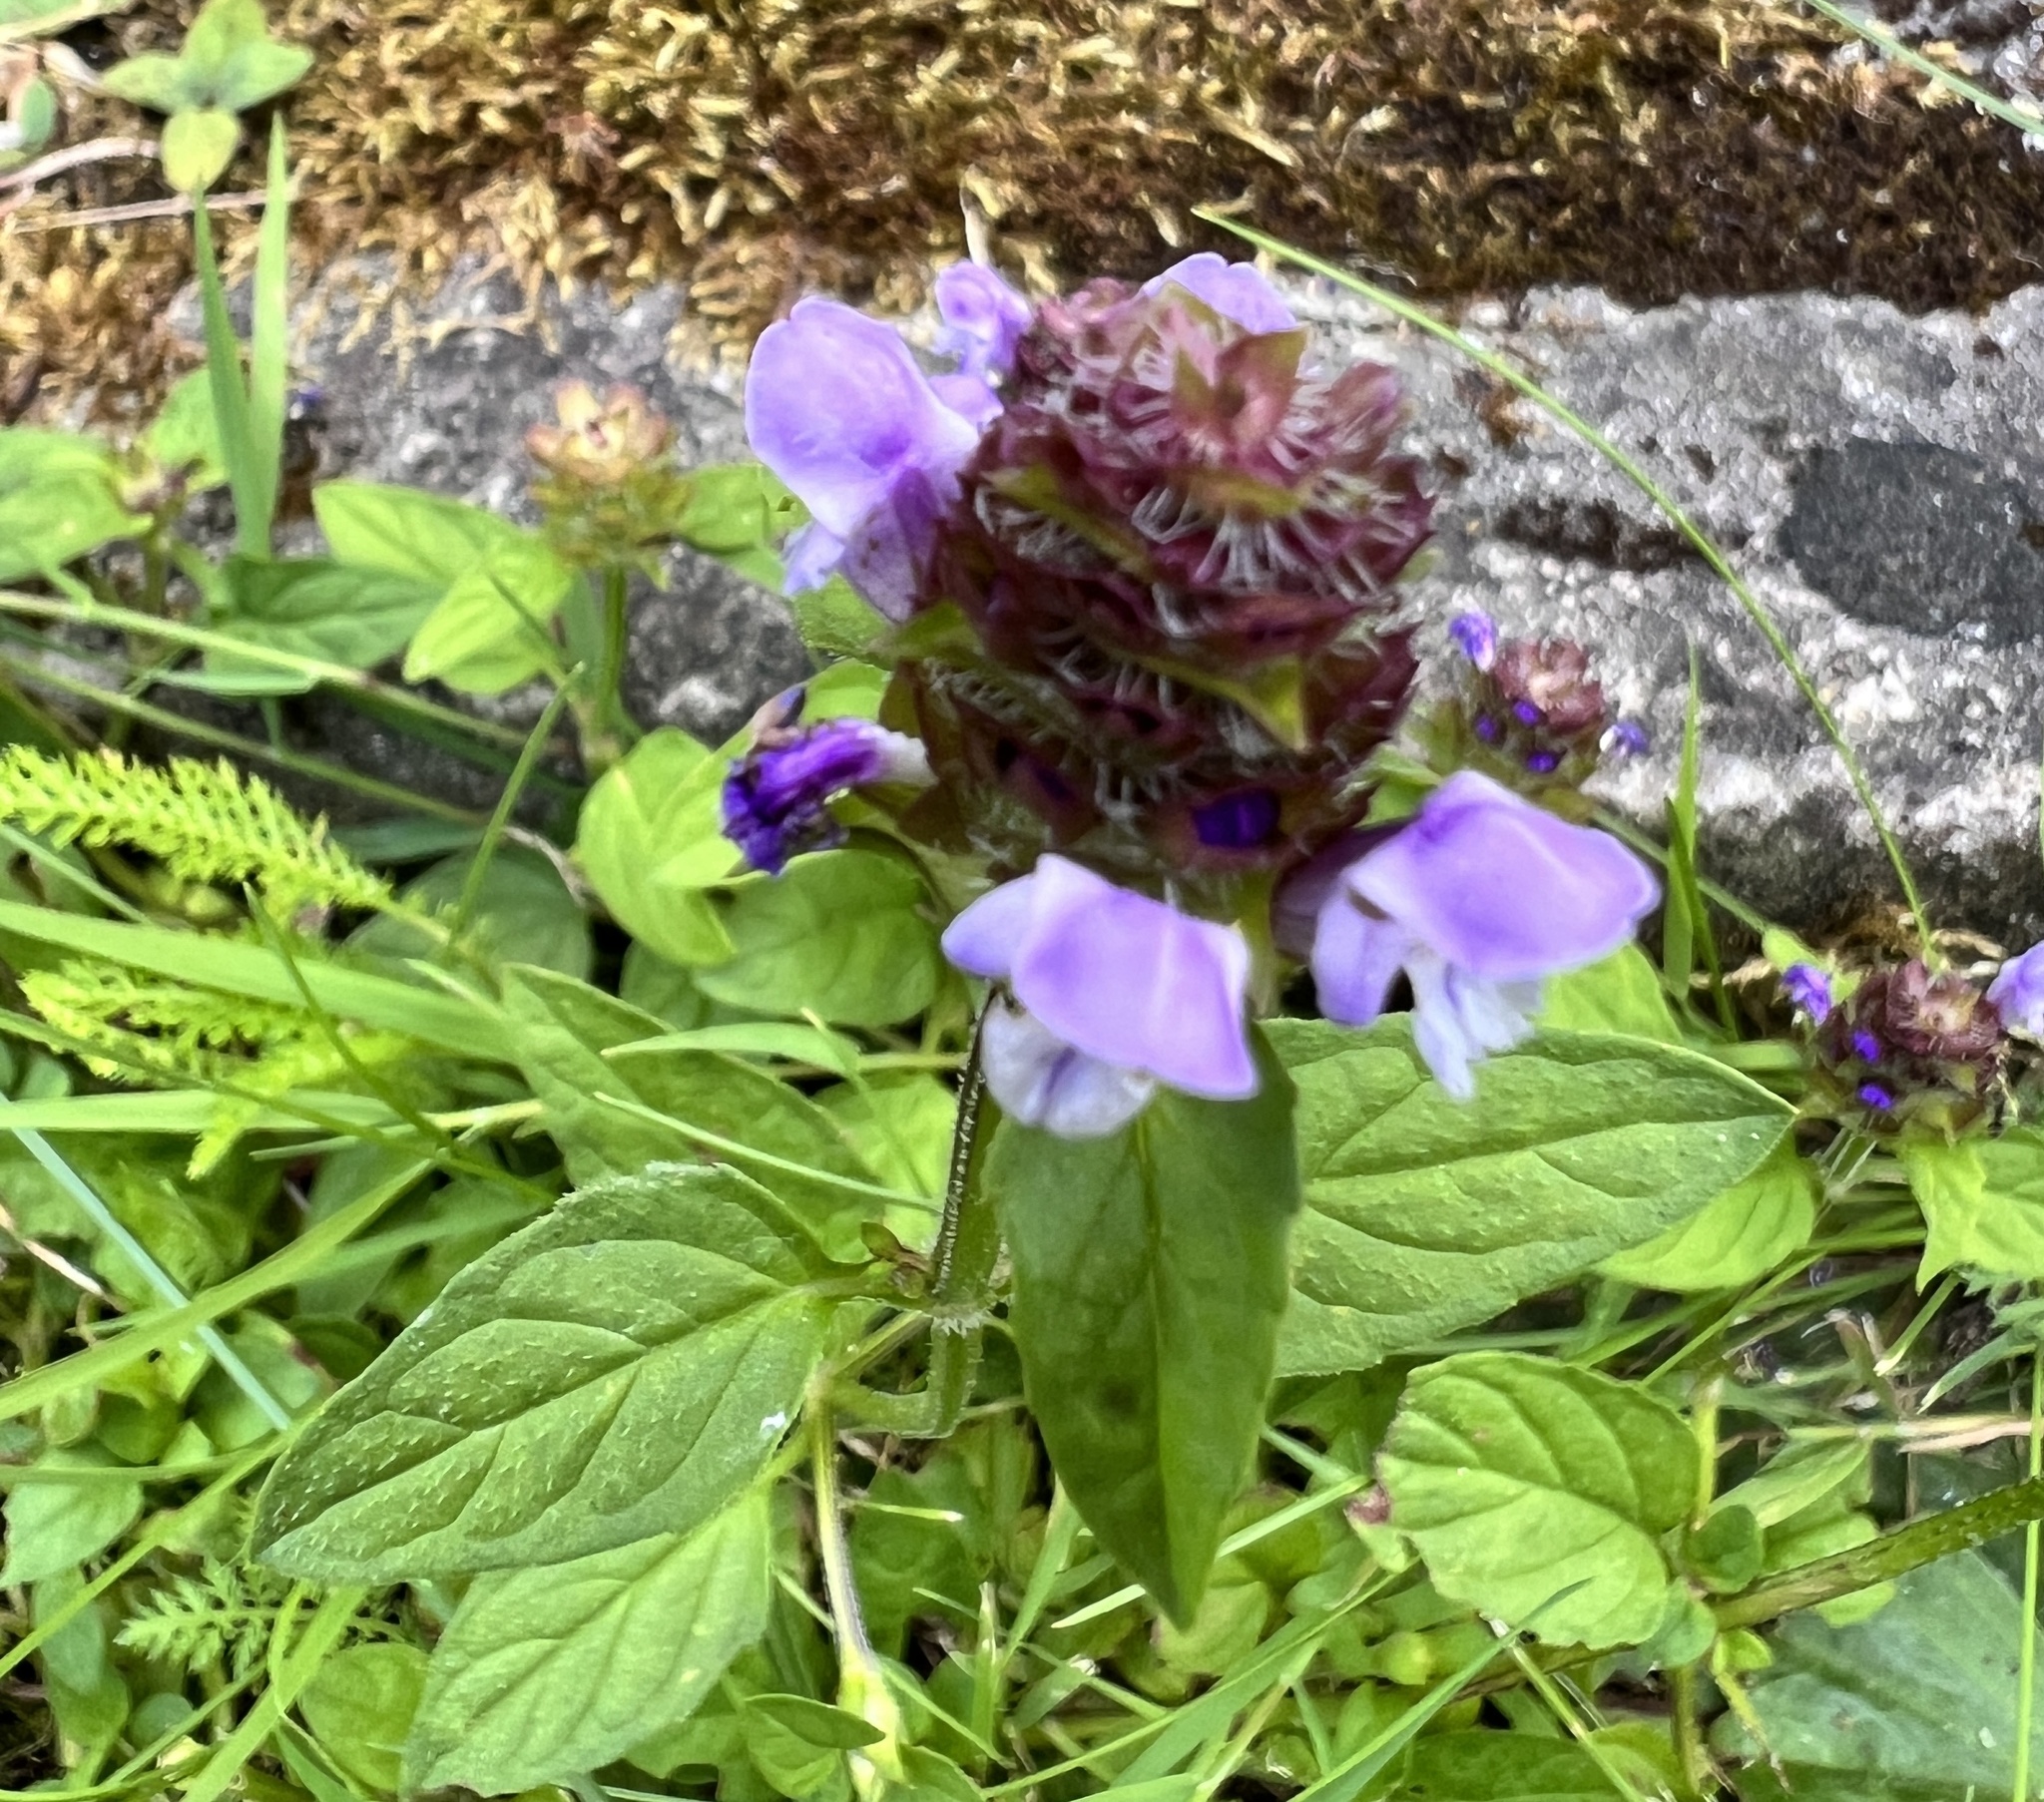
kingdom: Plantae
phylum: Tracheophyta
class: Magnoliopsida
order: Lamiales
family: Lamiaceae
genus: Prunella
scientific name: Prunella vulgaris
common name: Heal-all
